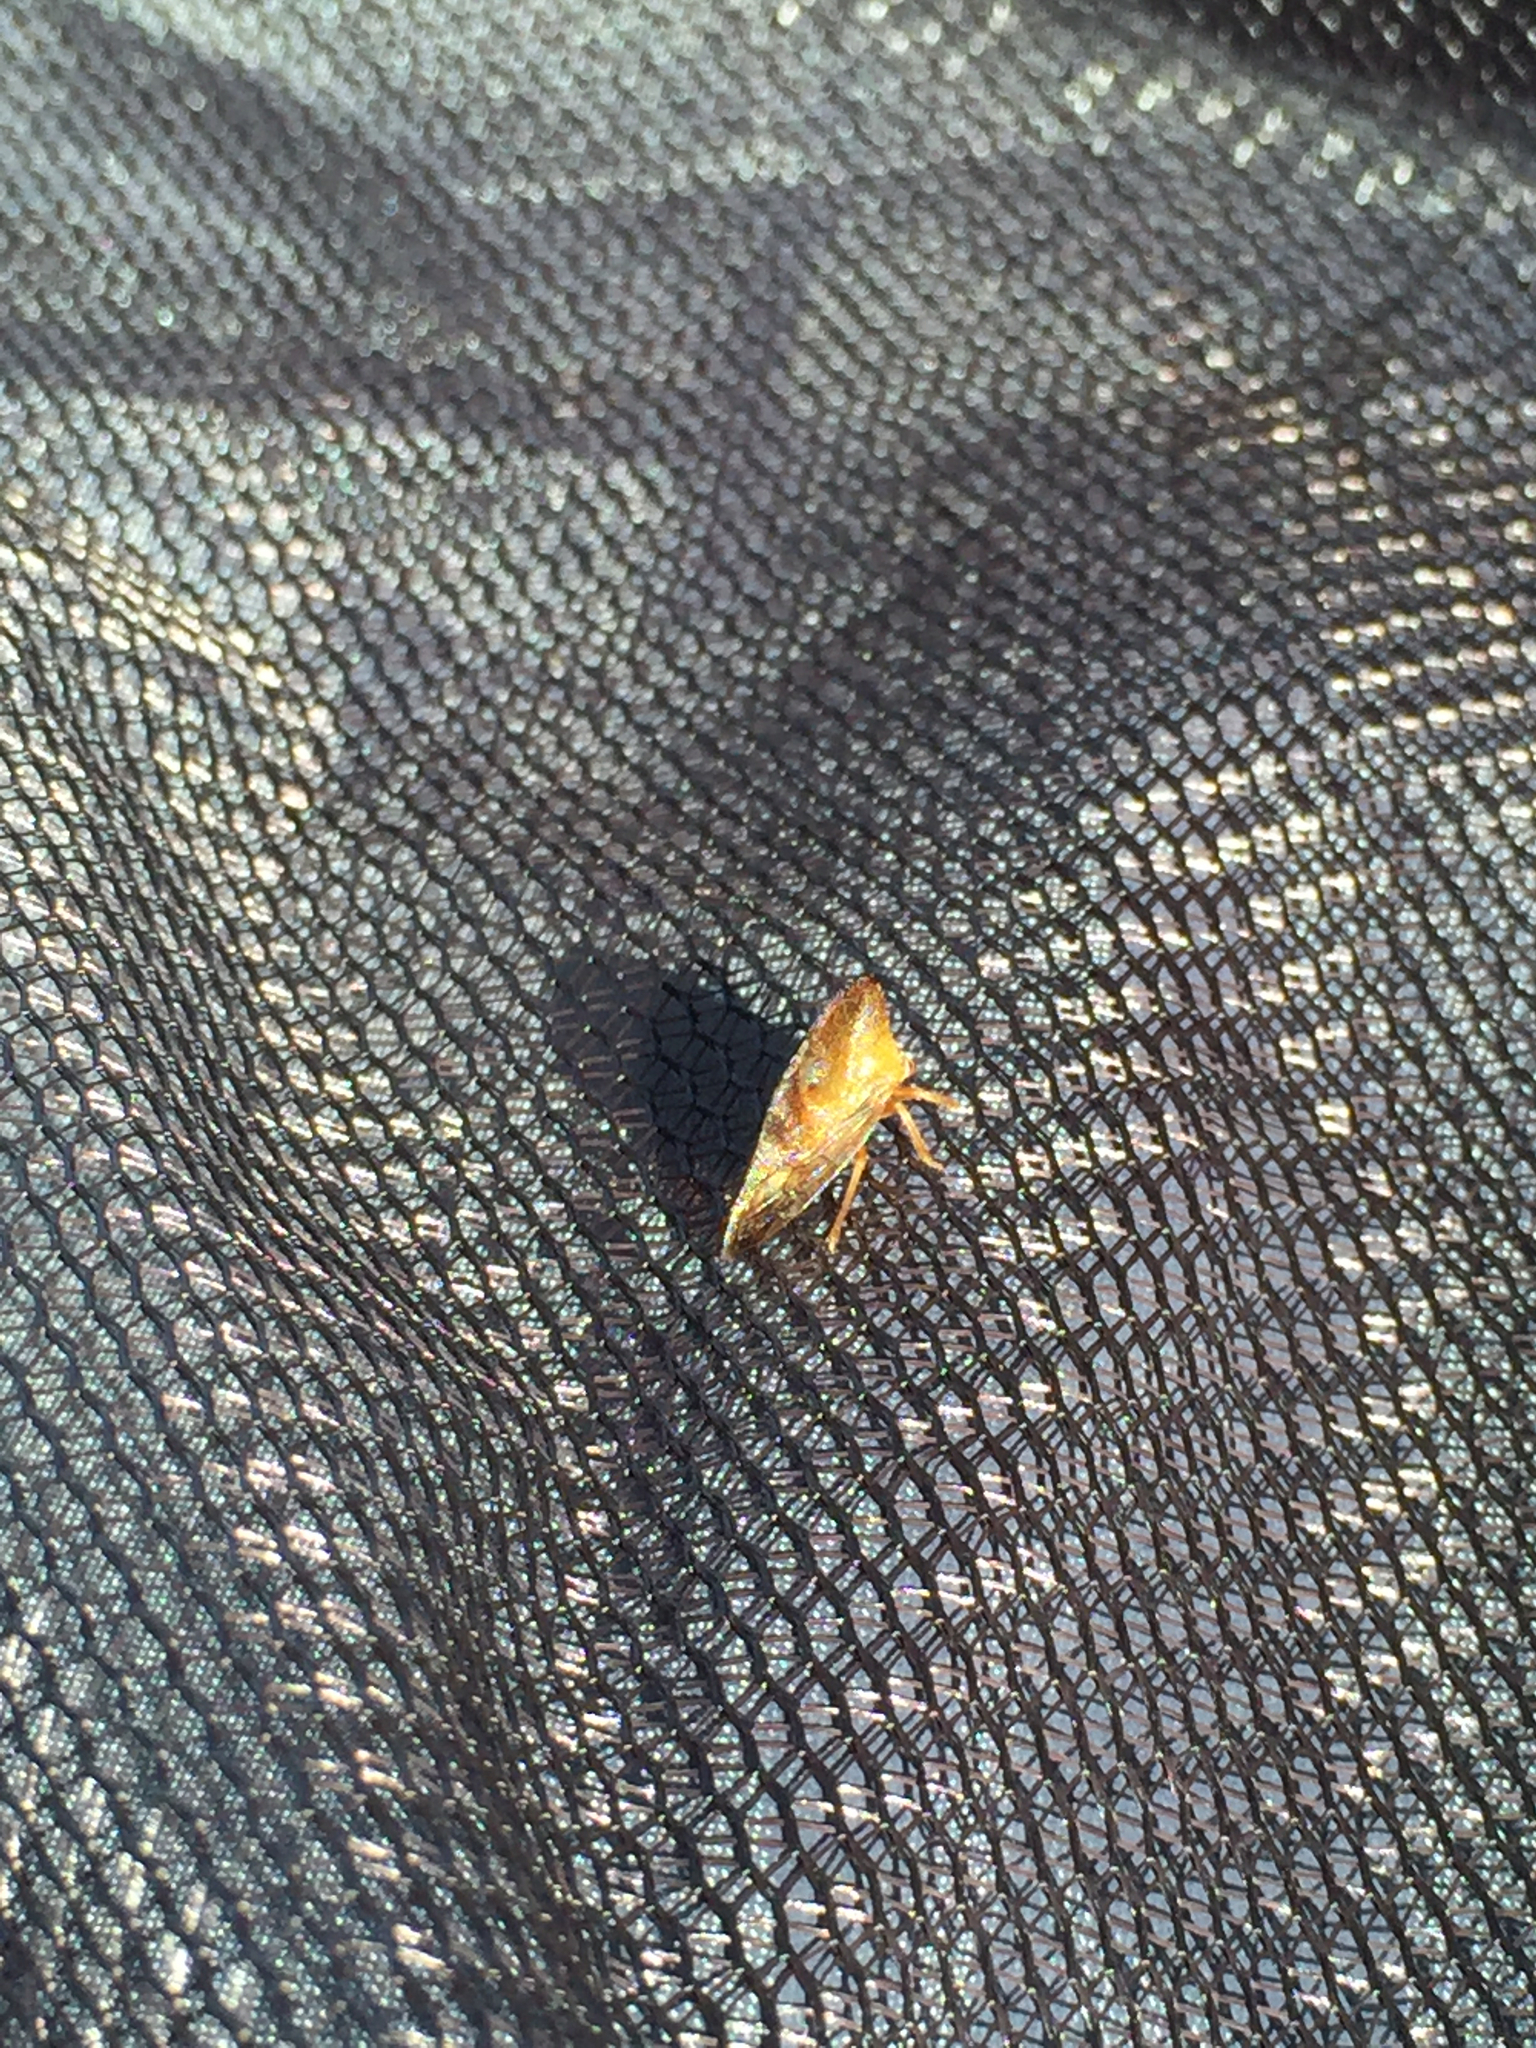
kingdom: Animalia
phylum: Arthropoda
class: Insecta
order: Hemiptera
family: Membracidae
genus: Smilia
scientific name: Smilia camelus
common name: Camel treehopper
